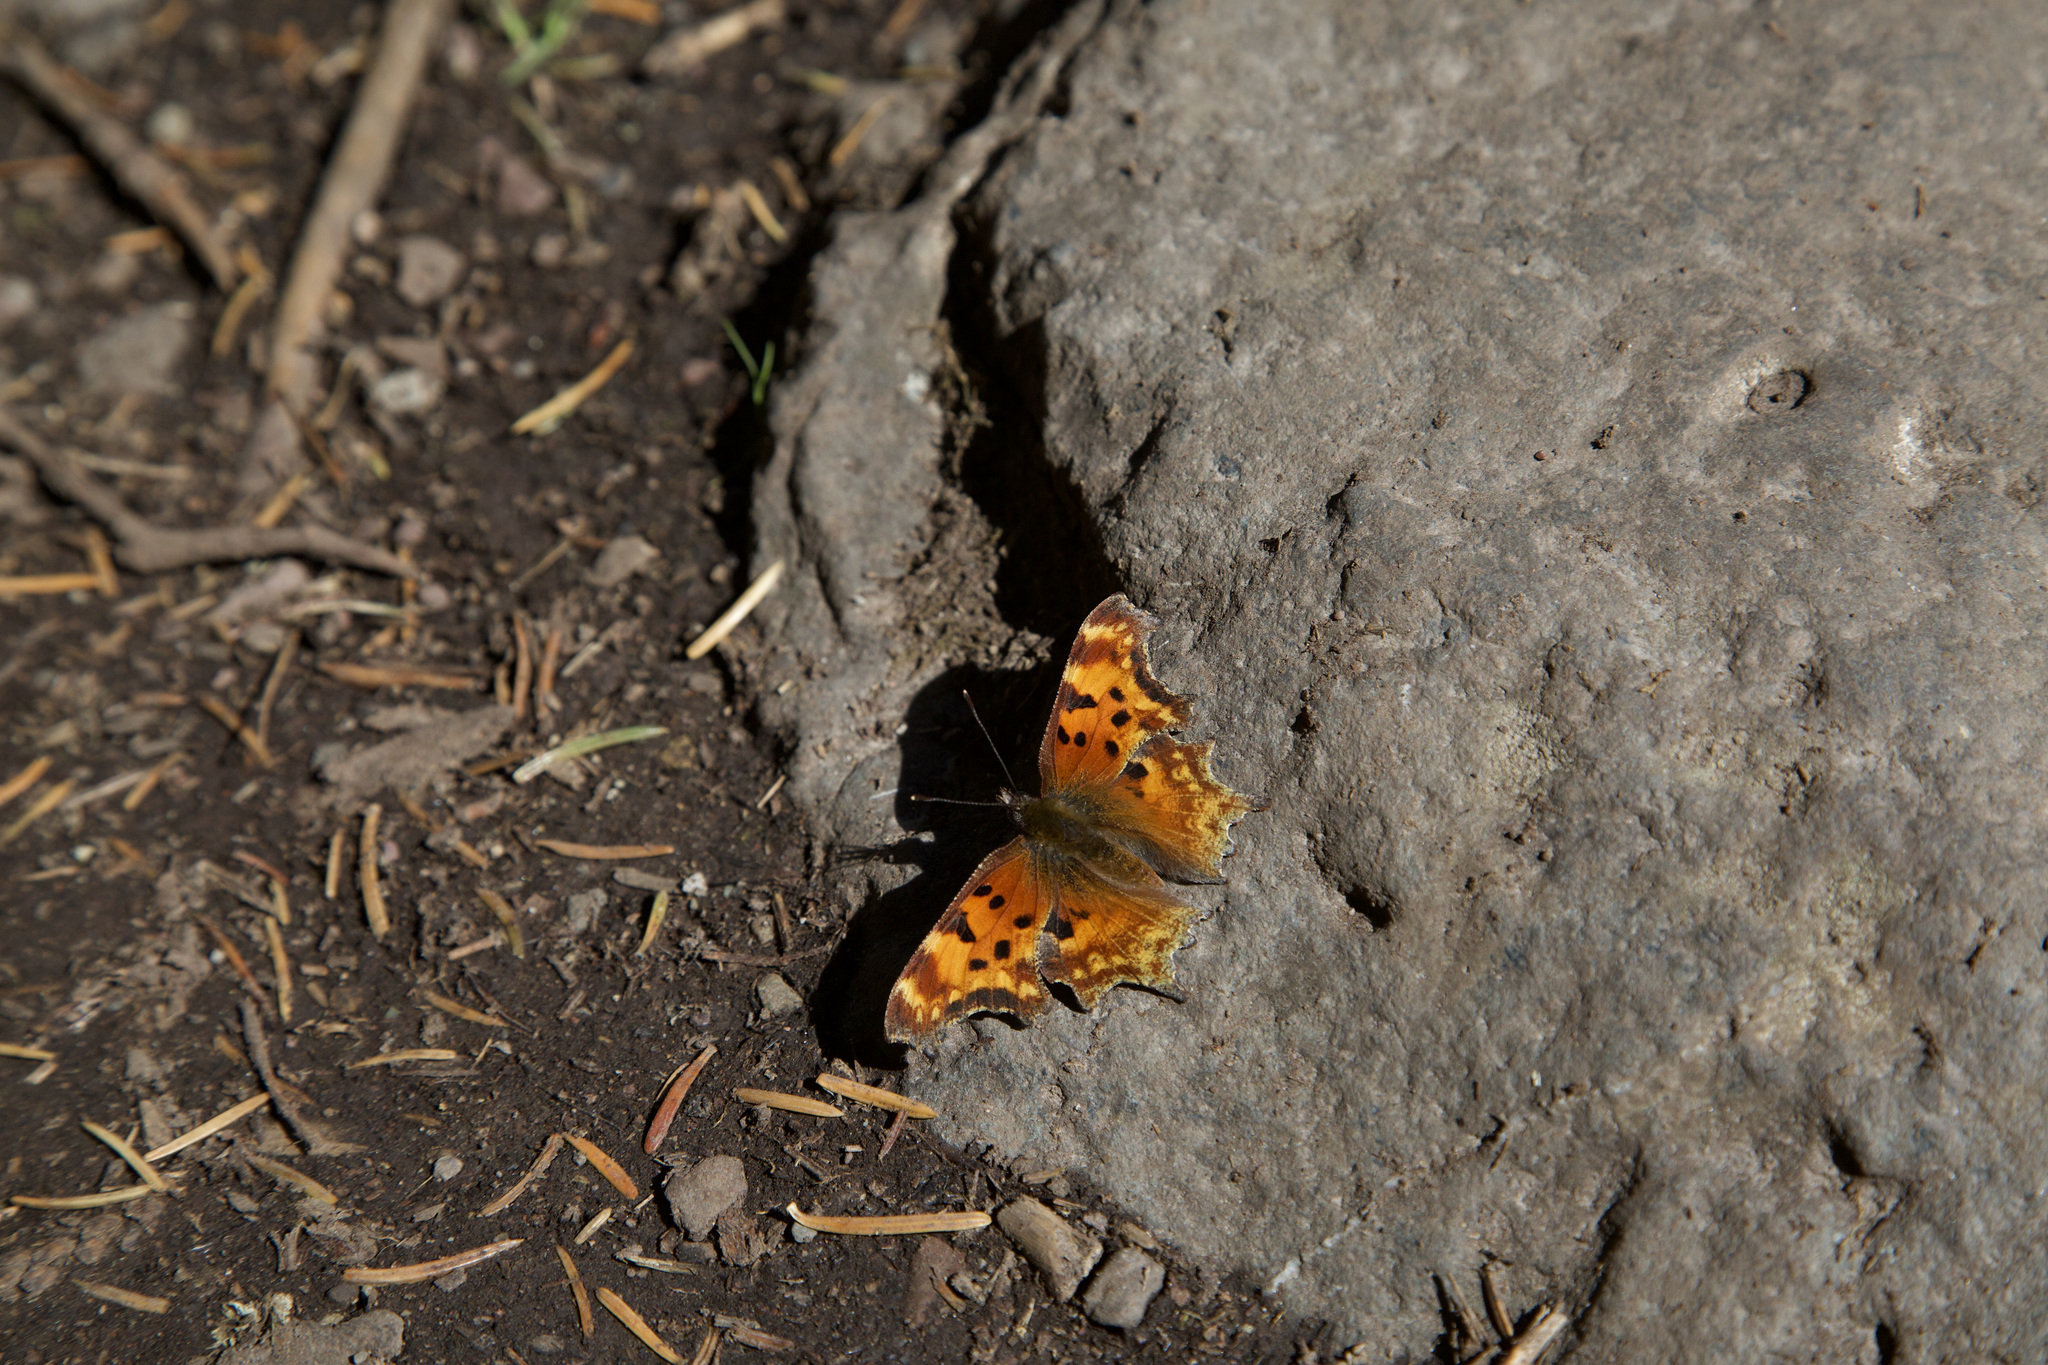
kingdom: Animalia
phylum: Arthropoda
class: Insecta
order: Lepidoptera
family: Nymphalidae
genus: Polygonia
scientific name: Polygonia gracilis
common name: Hoary comma
